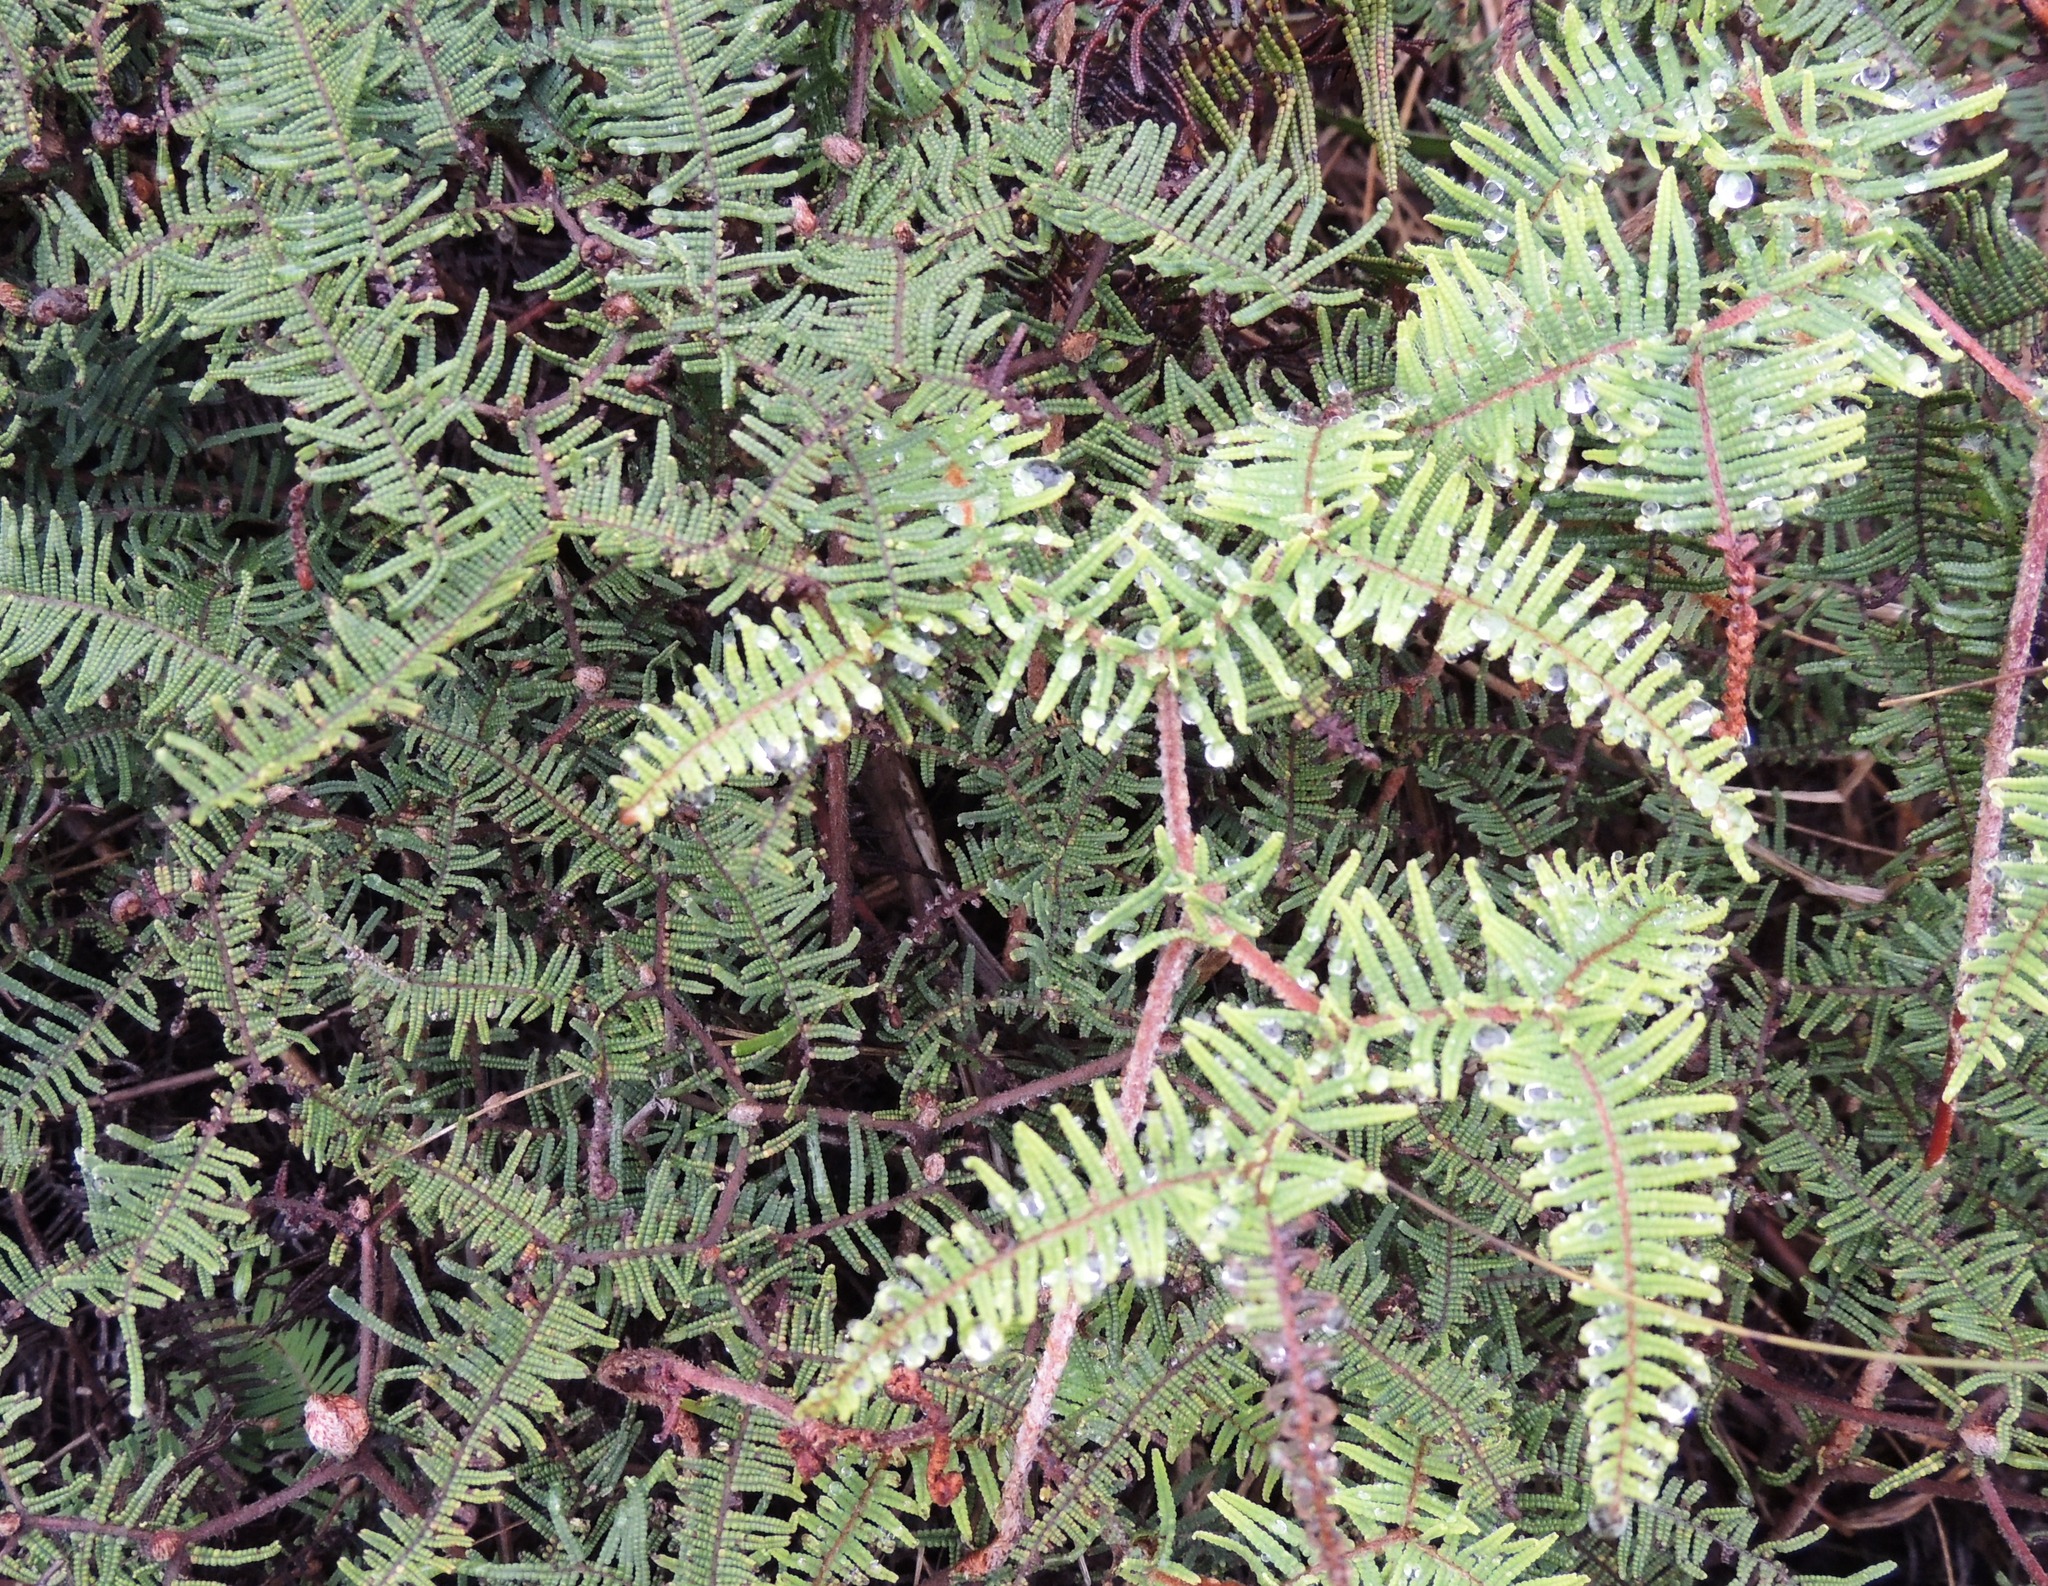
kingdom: Plantae
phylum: Tracheophyta
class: Polypodiopsida
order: Gleicheniales
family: Gleicheniaceae
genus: Gleichenia
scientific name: Gleichenia dicarpa
